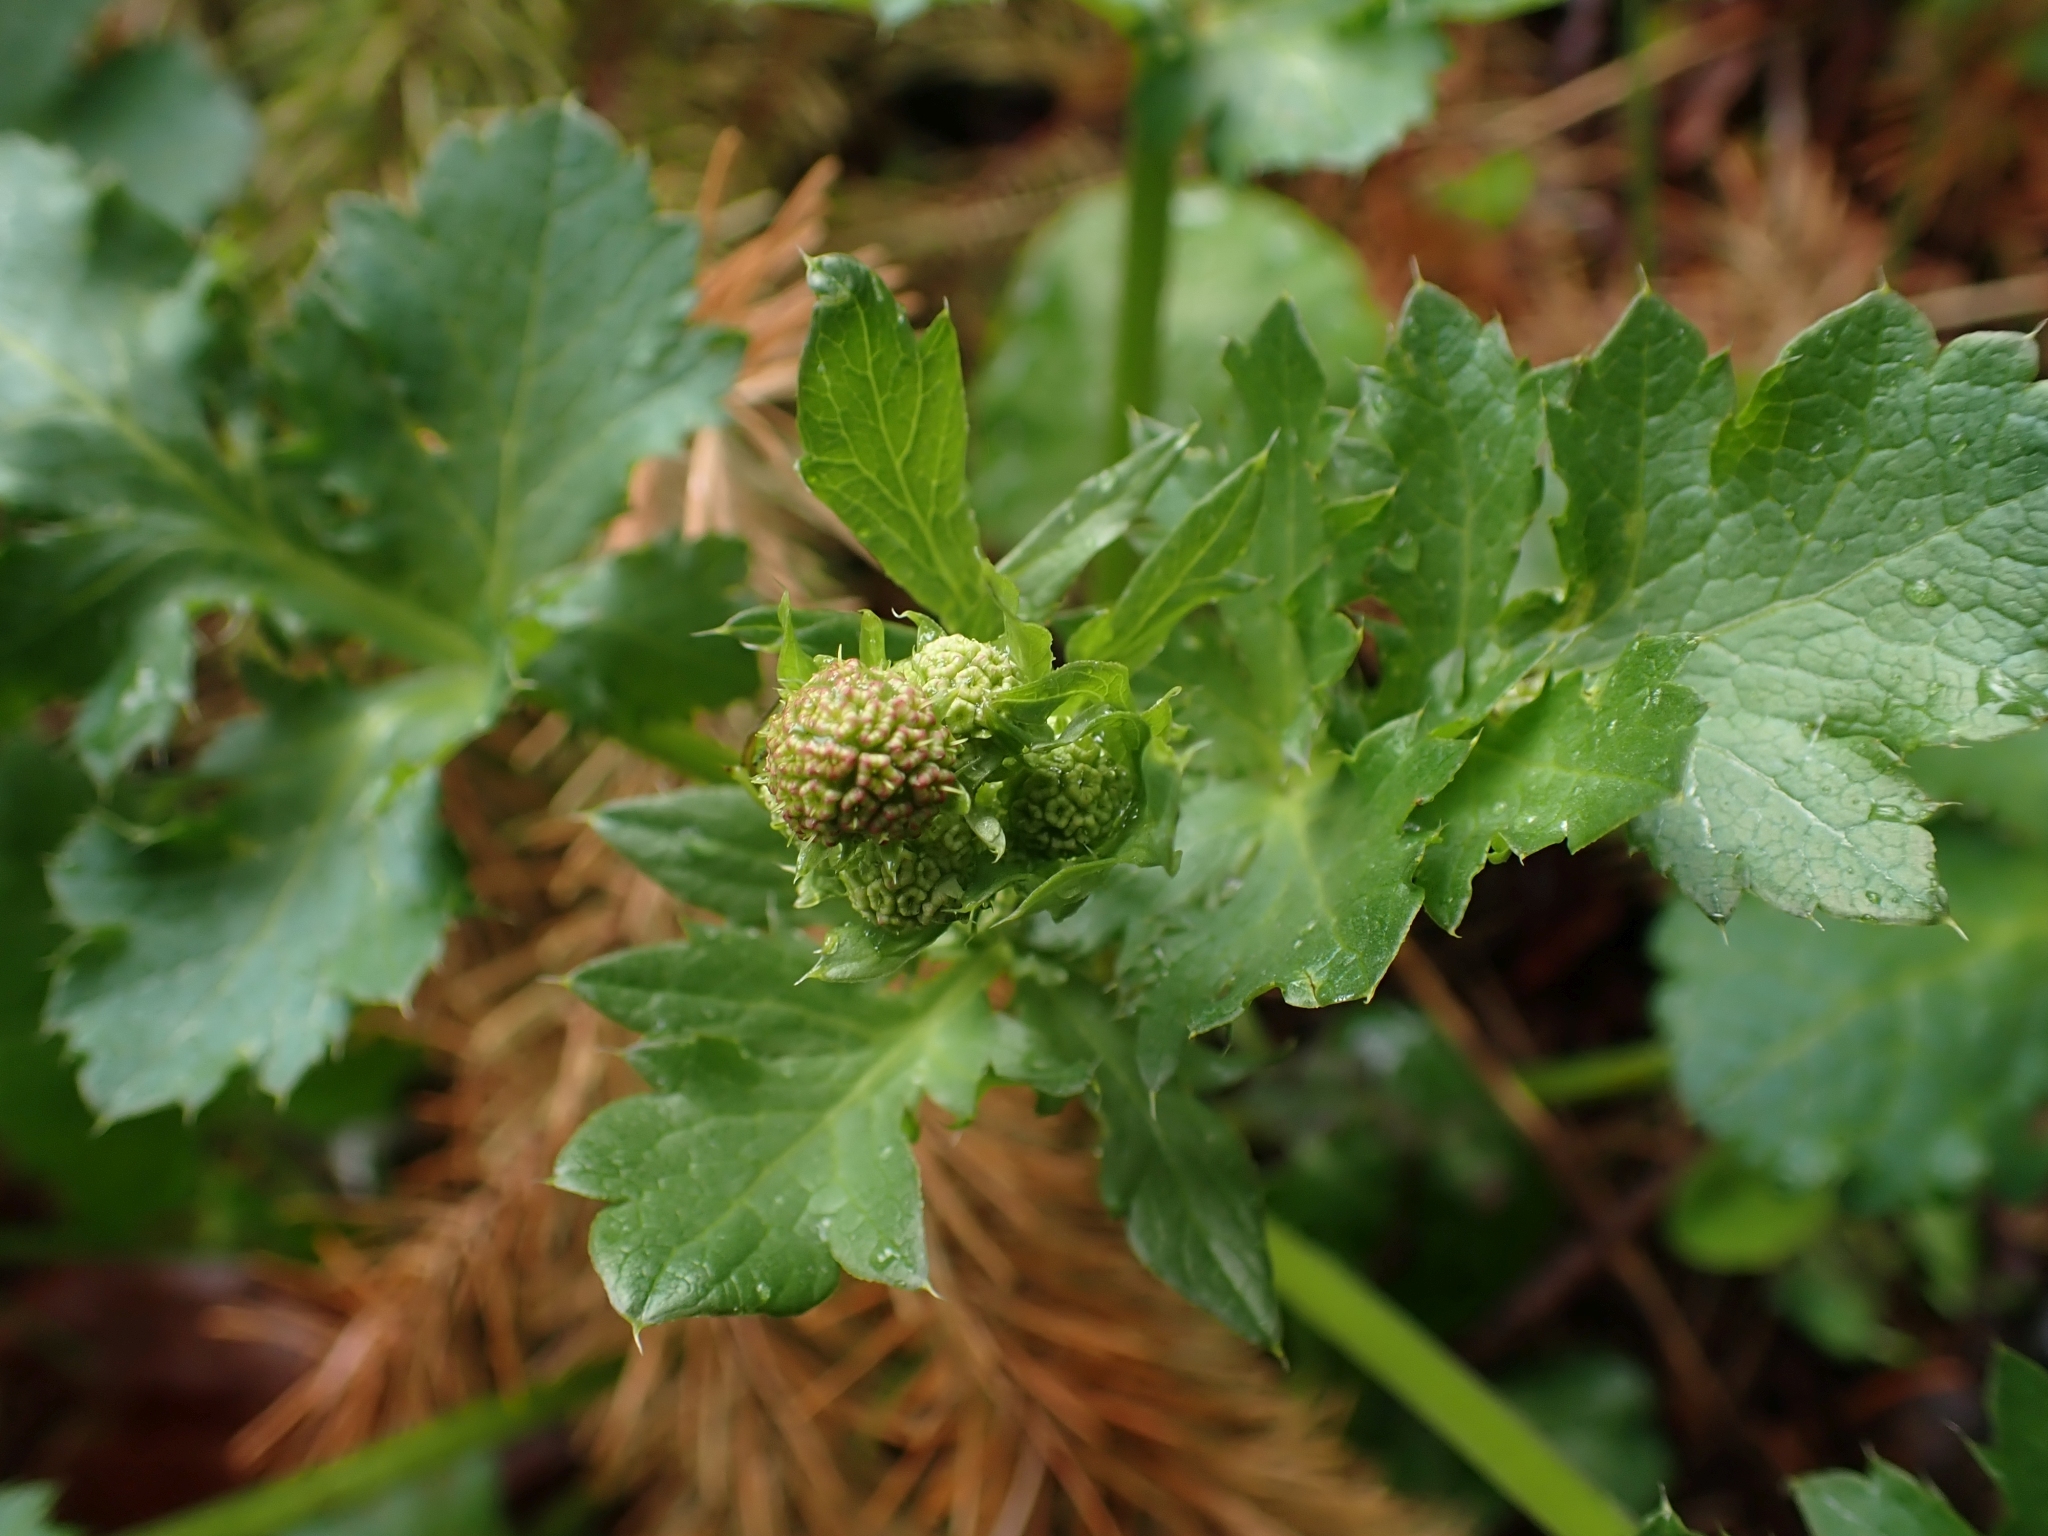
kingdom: Plantae
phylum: Tracheophyta
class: Magnoliopsida
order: Apiales
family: Apiaceae
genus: Sanicula
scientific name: Sanicula crassicaulis
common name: Western snakeroot
